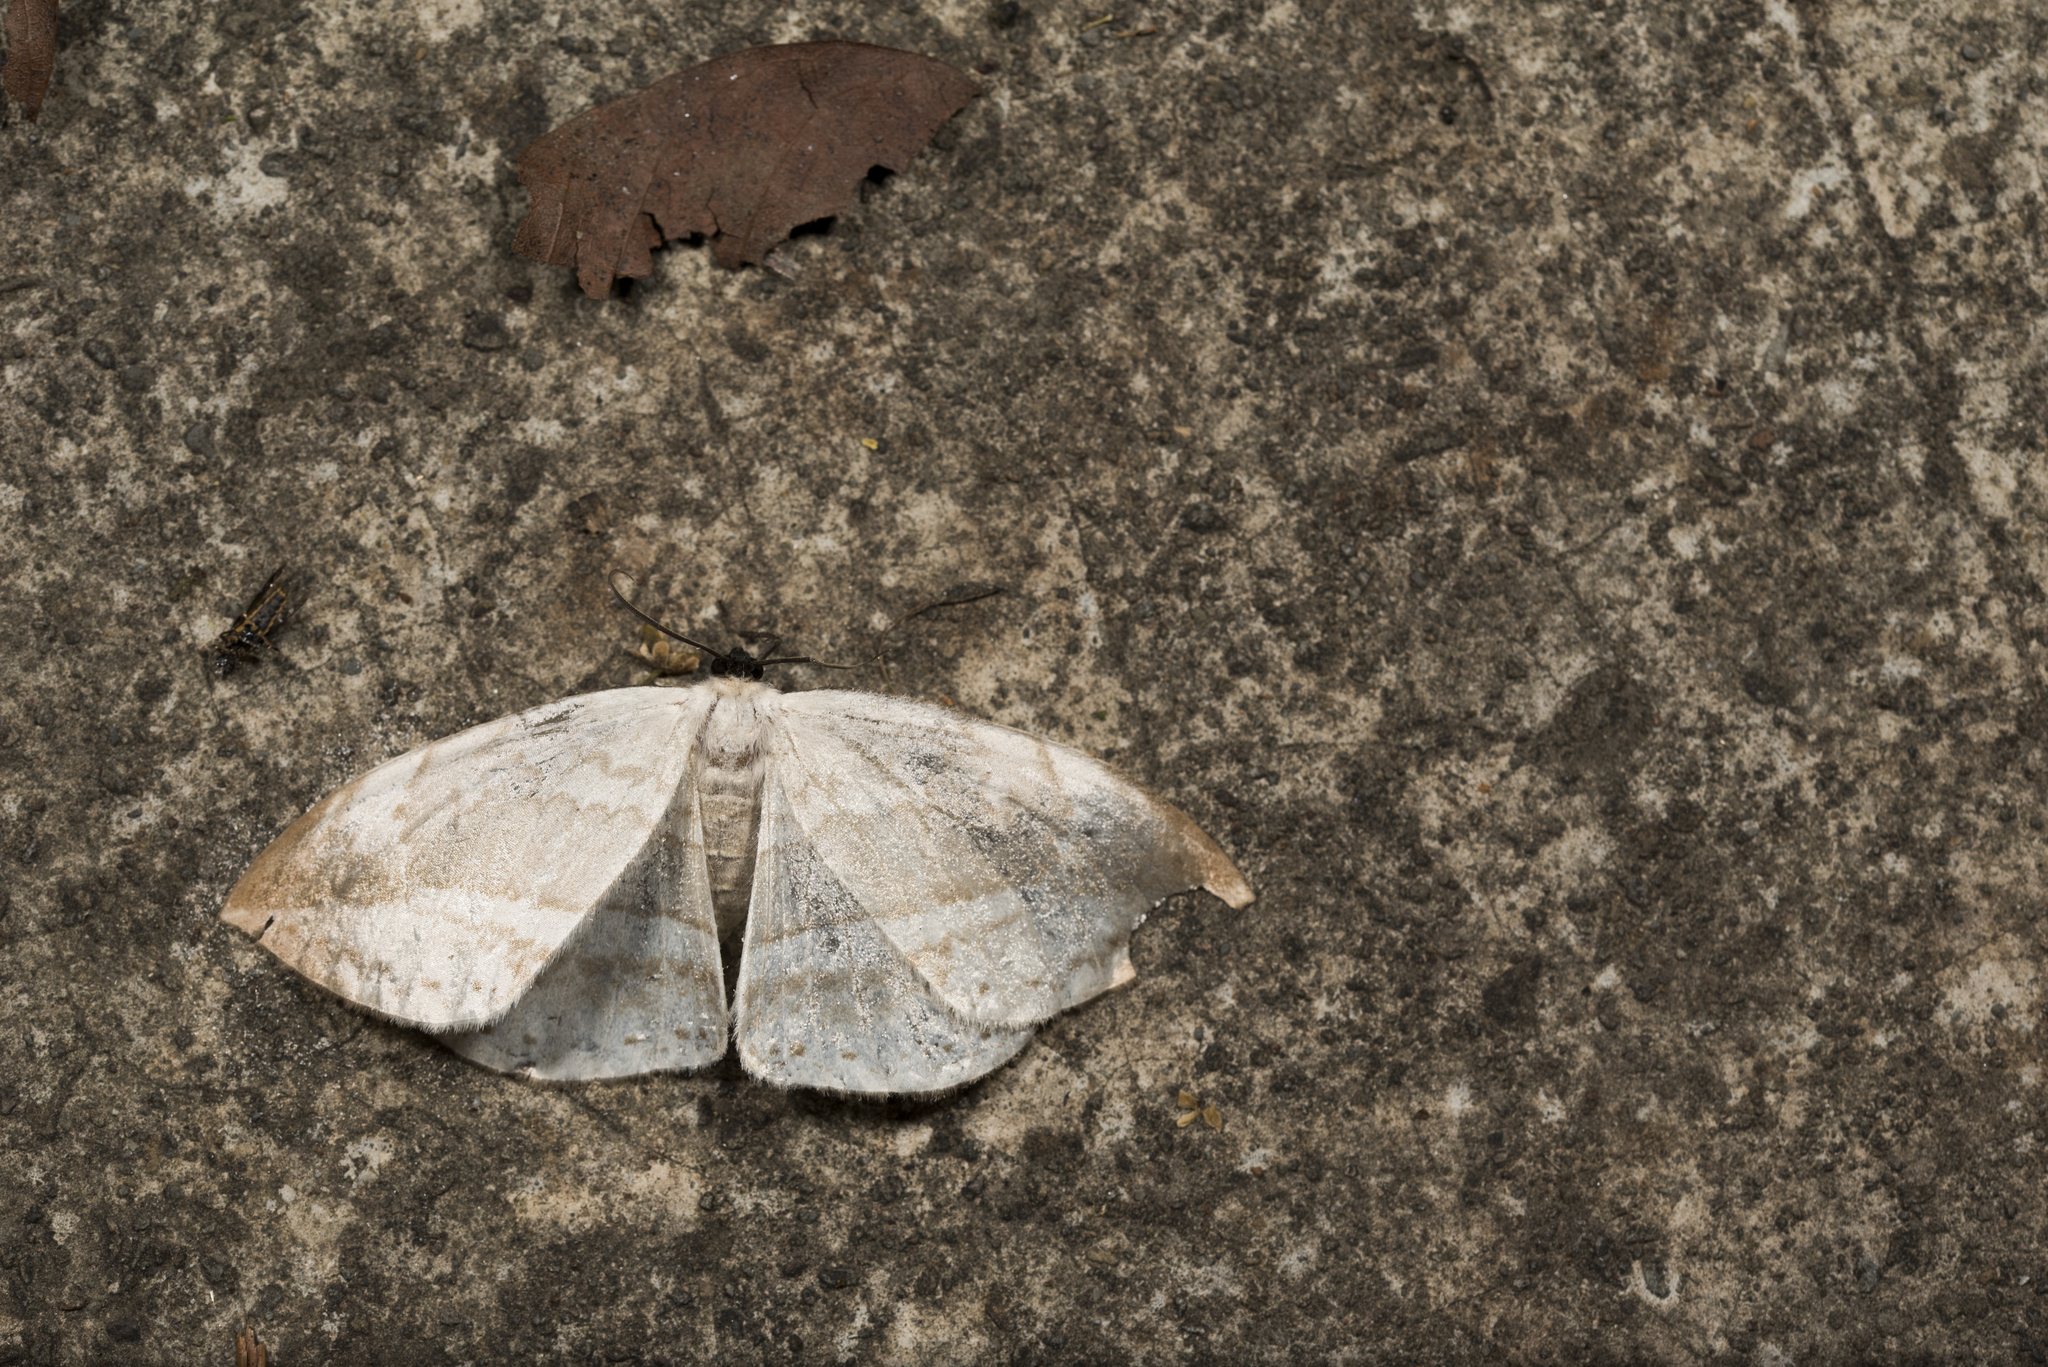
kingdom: Animalia
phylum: Arthropoda
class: Insecta
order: Lepidoptera
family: Drepanidae
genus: Cyclidia
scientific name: Cyclidia substigmaria
